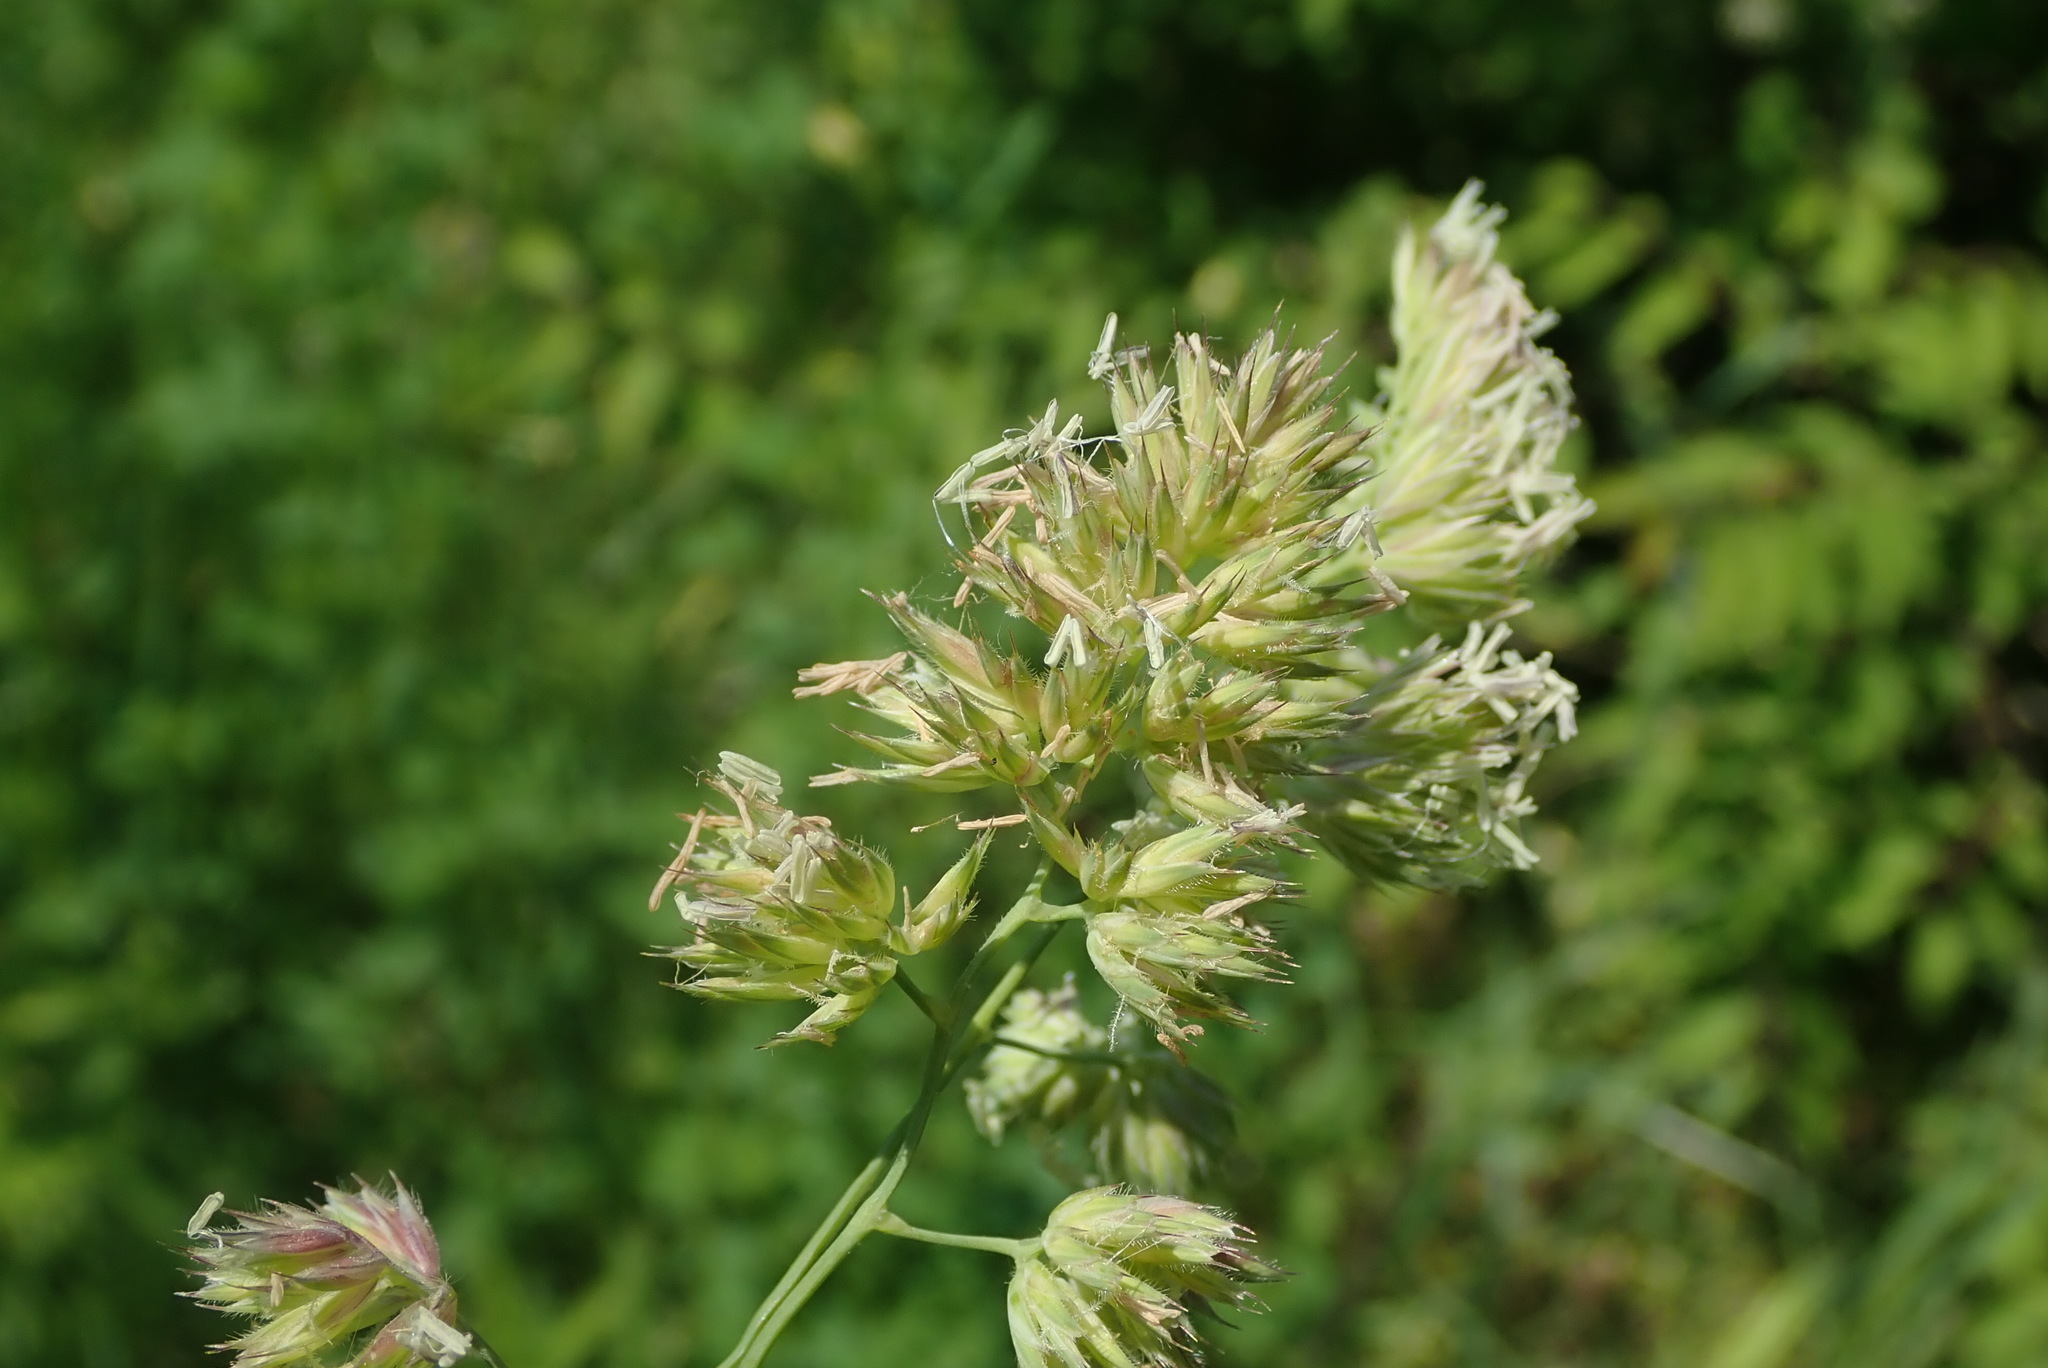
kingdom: Plantae
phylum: Tracheophyta
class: Liliopsida
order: Poales
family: Poaceae
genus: Dactylis
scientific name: Dactylis glomerata
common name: Orchardgrass
